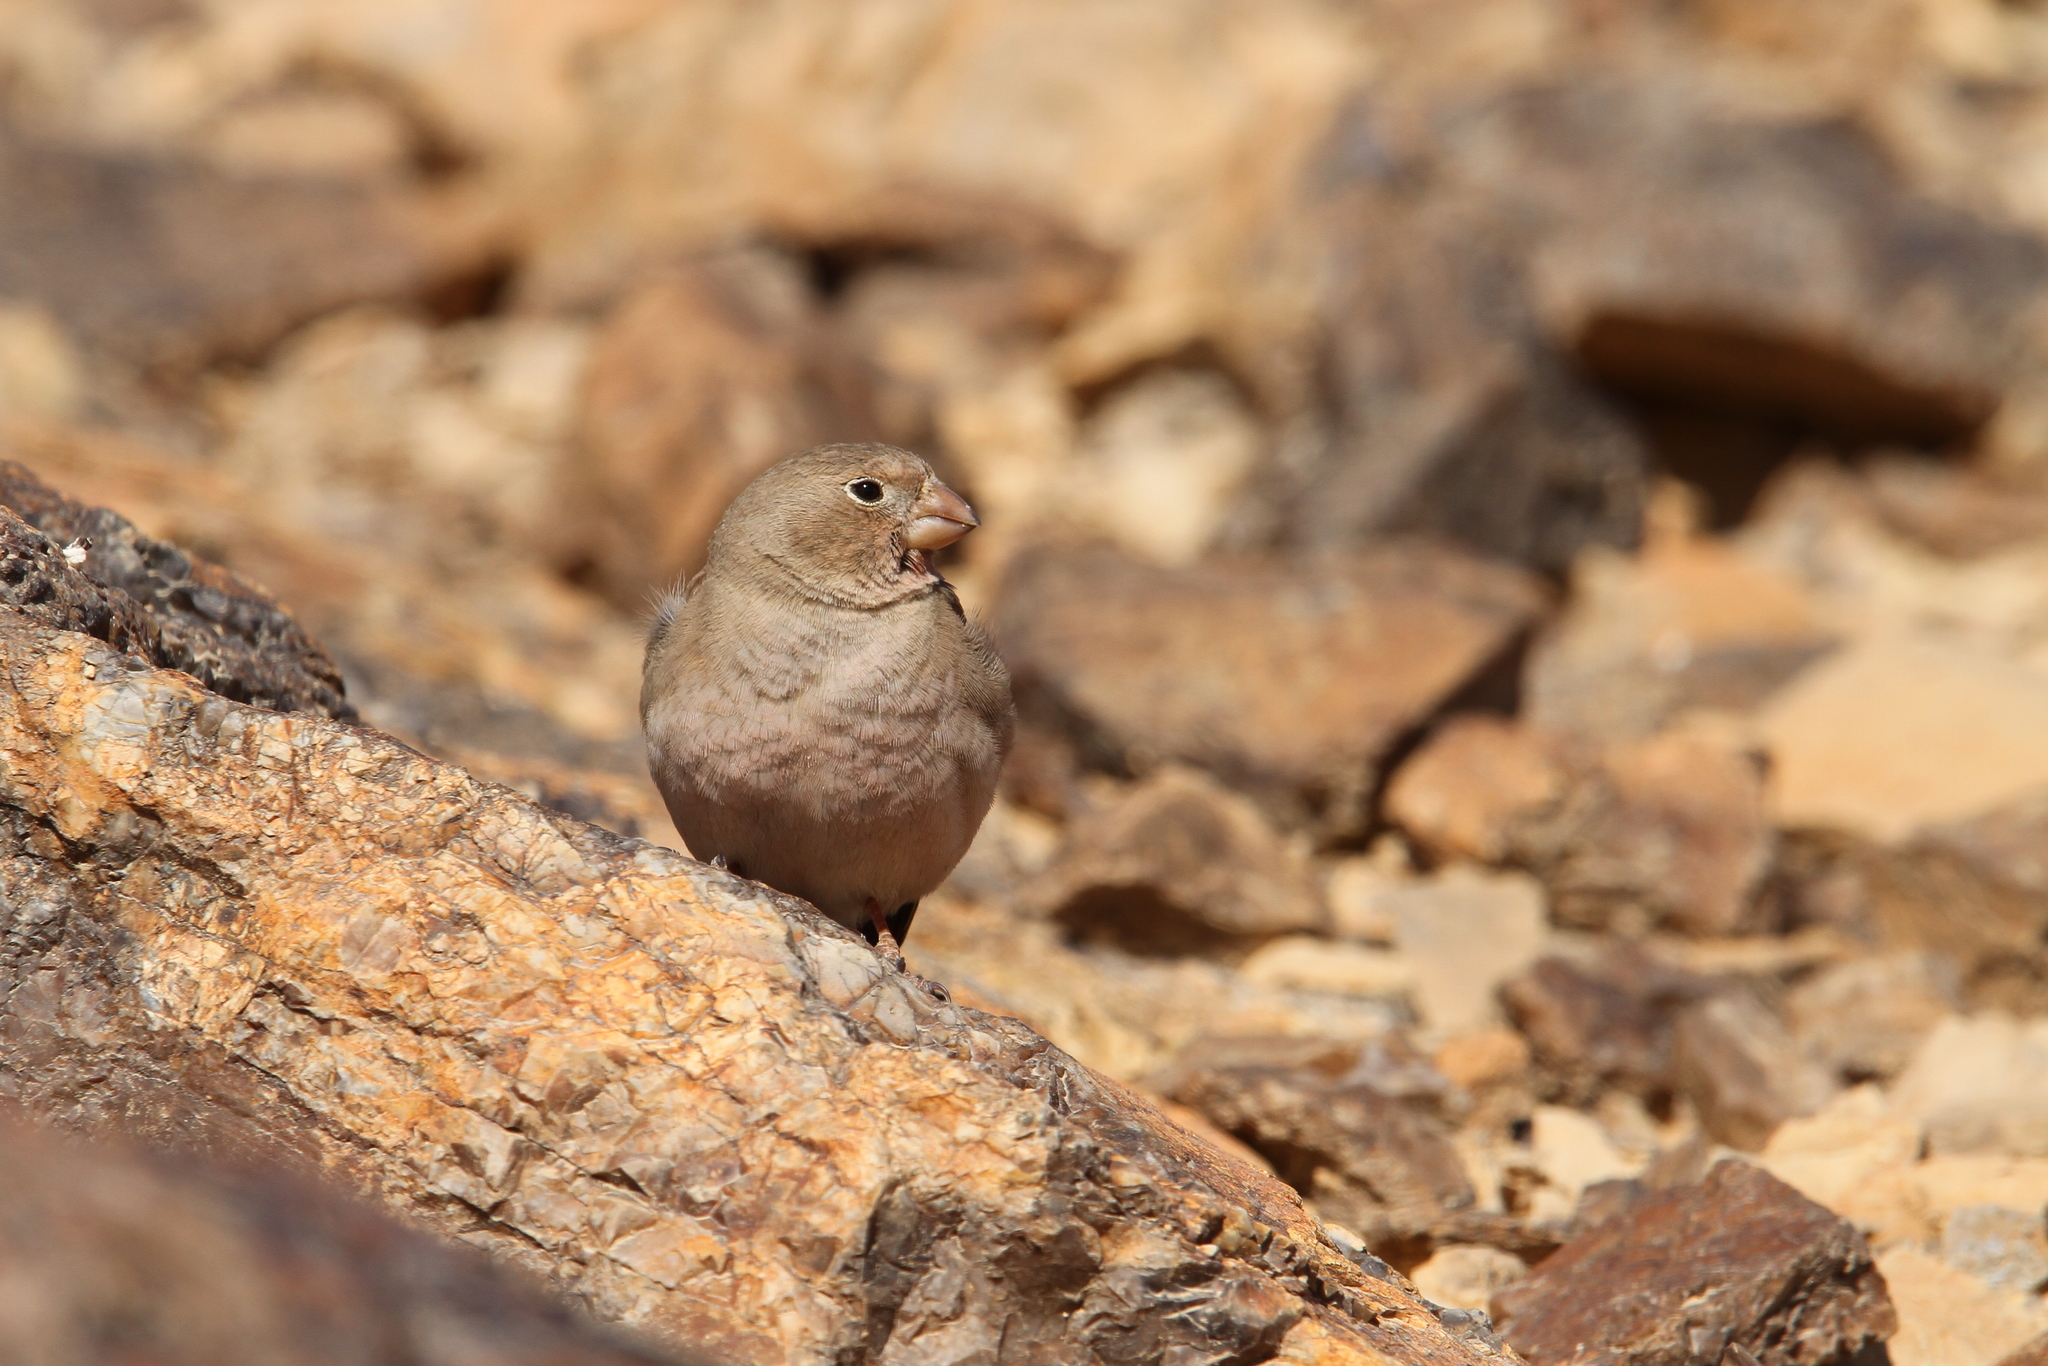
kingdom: Animalia
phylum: Chordata
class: Aves
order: Passeriformes
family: Fringillidae
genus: Bucanetes
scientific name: Bucanetes githagineus
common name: Trumpeter finch
